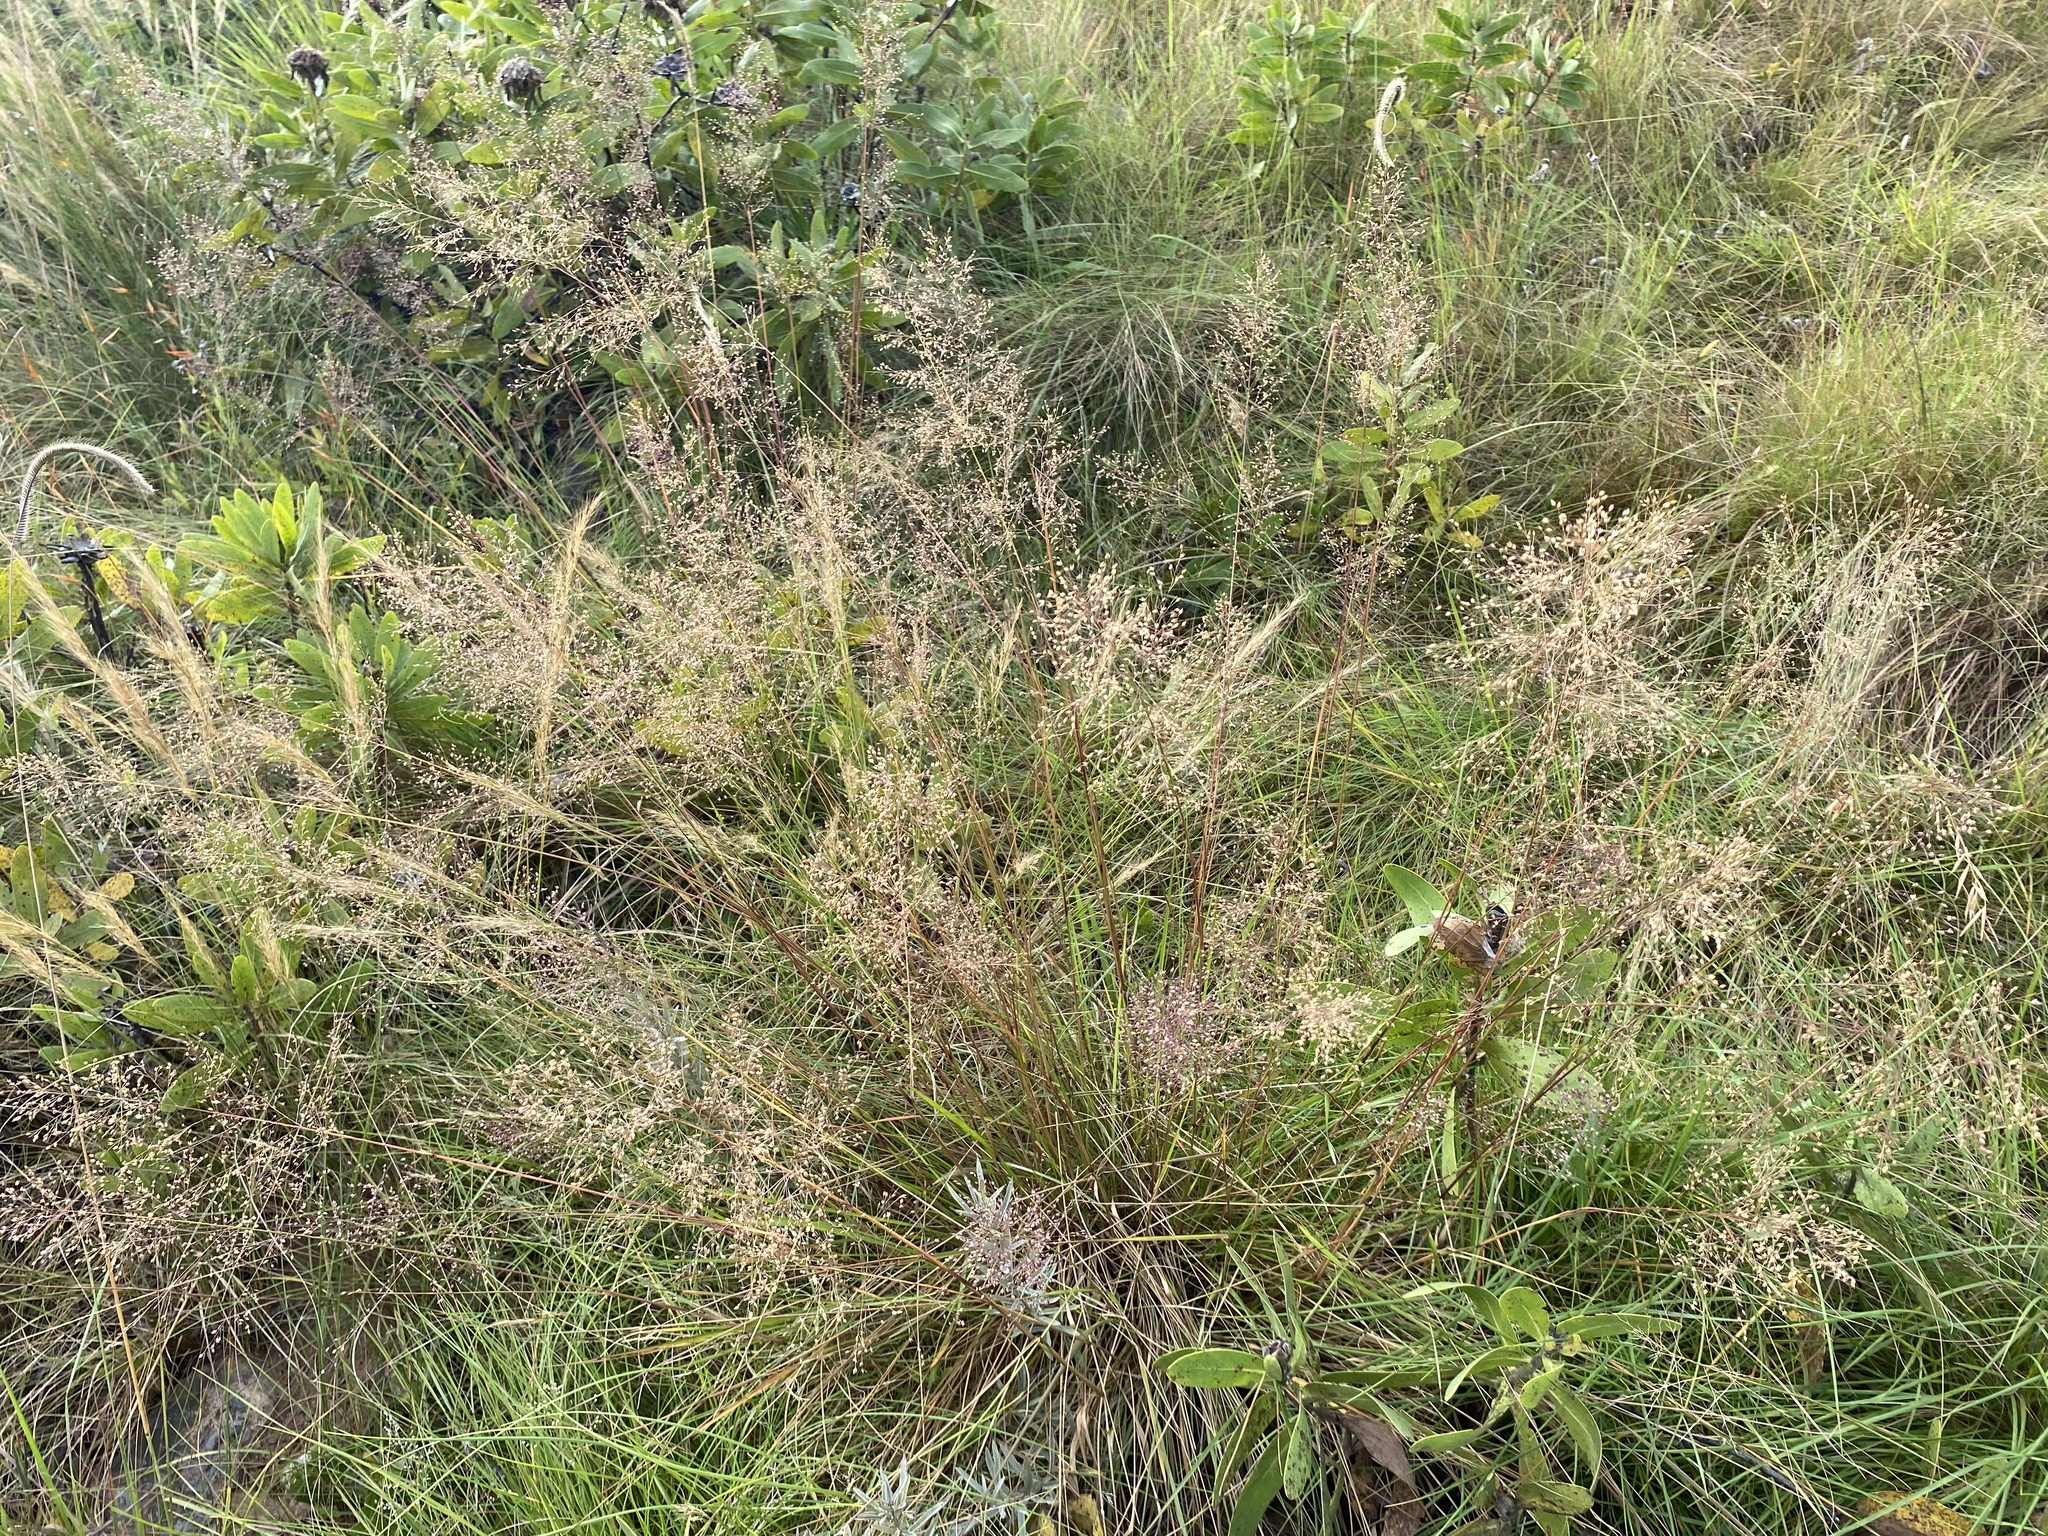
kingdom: Plantae
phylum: Tracheophyta
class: Liliopsida
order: Poales
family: Poaceae
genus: Melinis
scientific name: Melinis repens
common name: Rose natal grass
